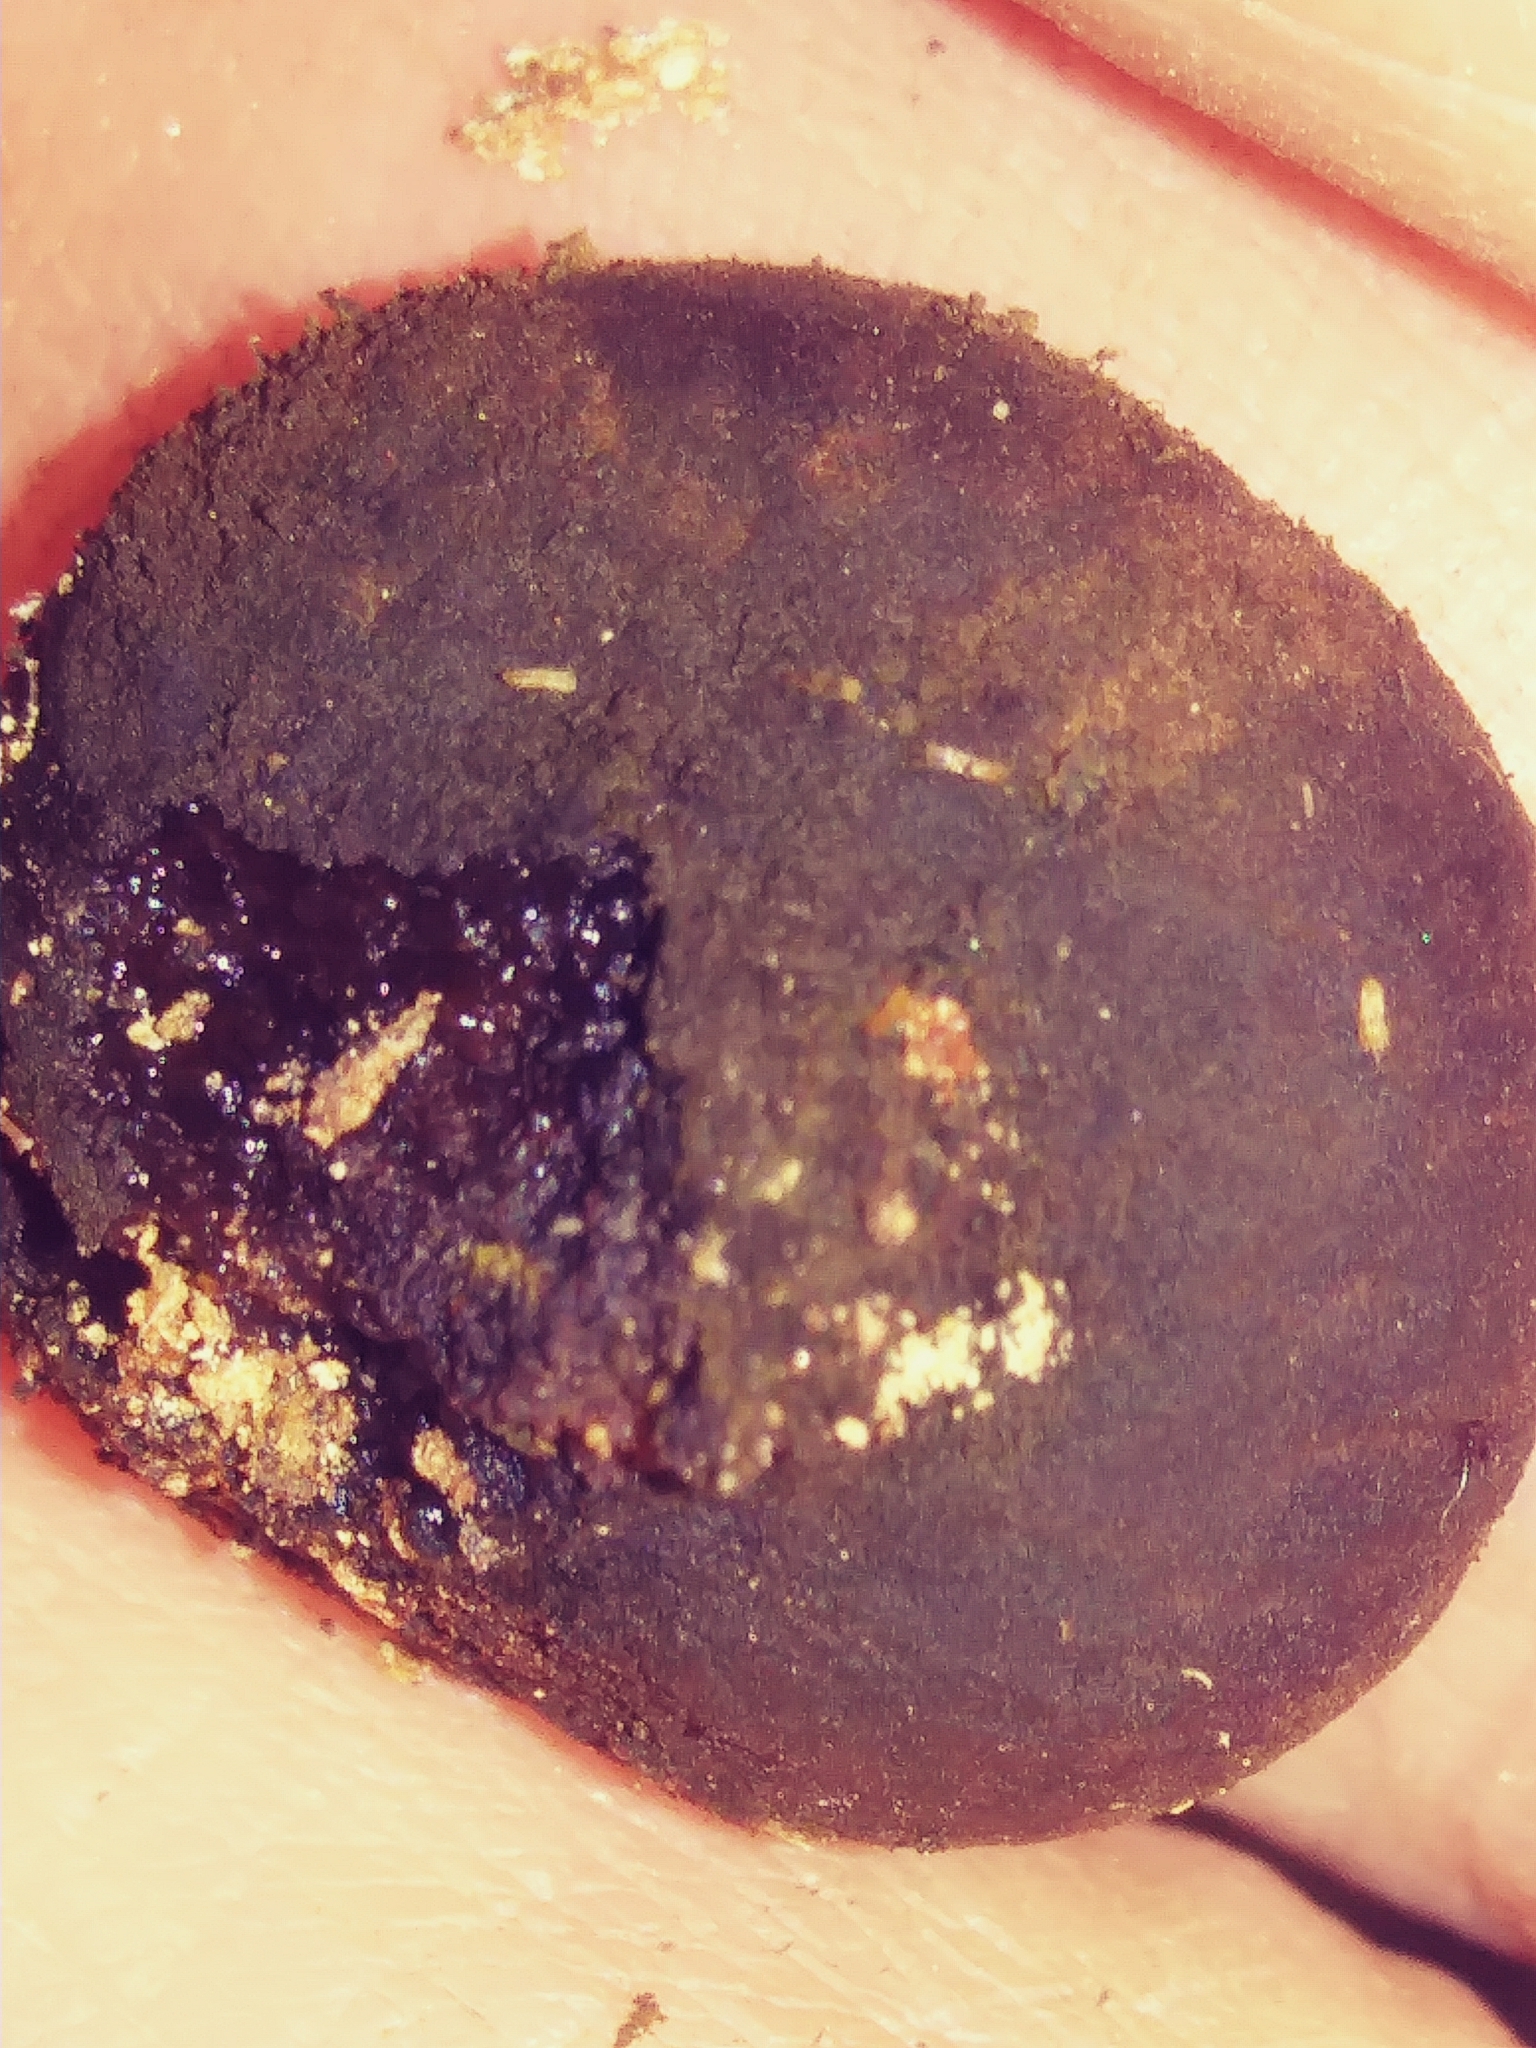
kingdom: Fungi
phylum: Ascomycota
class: Leotiomycetes
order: Phacidiales
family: Phacidiaceae
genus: Bulgaria
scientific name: Bulgaria inquinans
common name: Black bulgar
